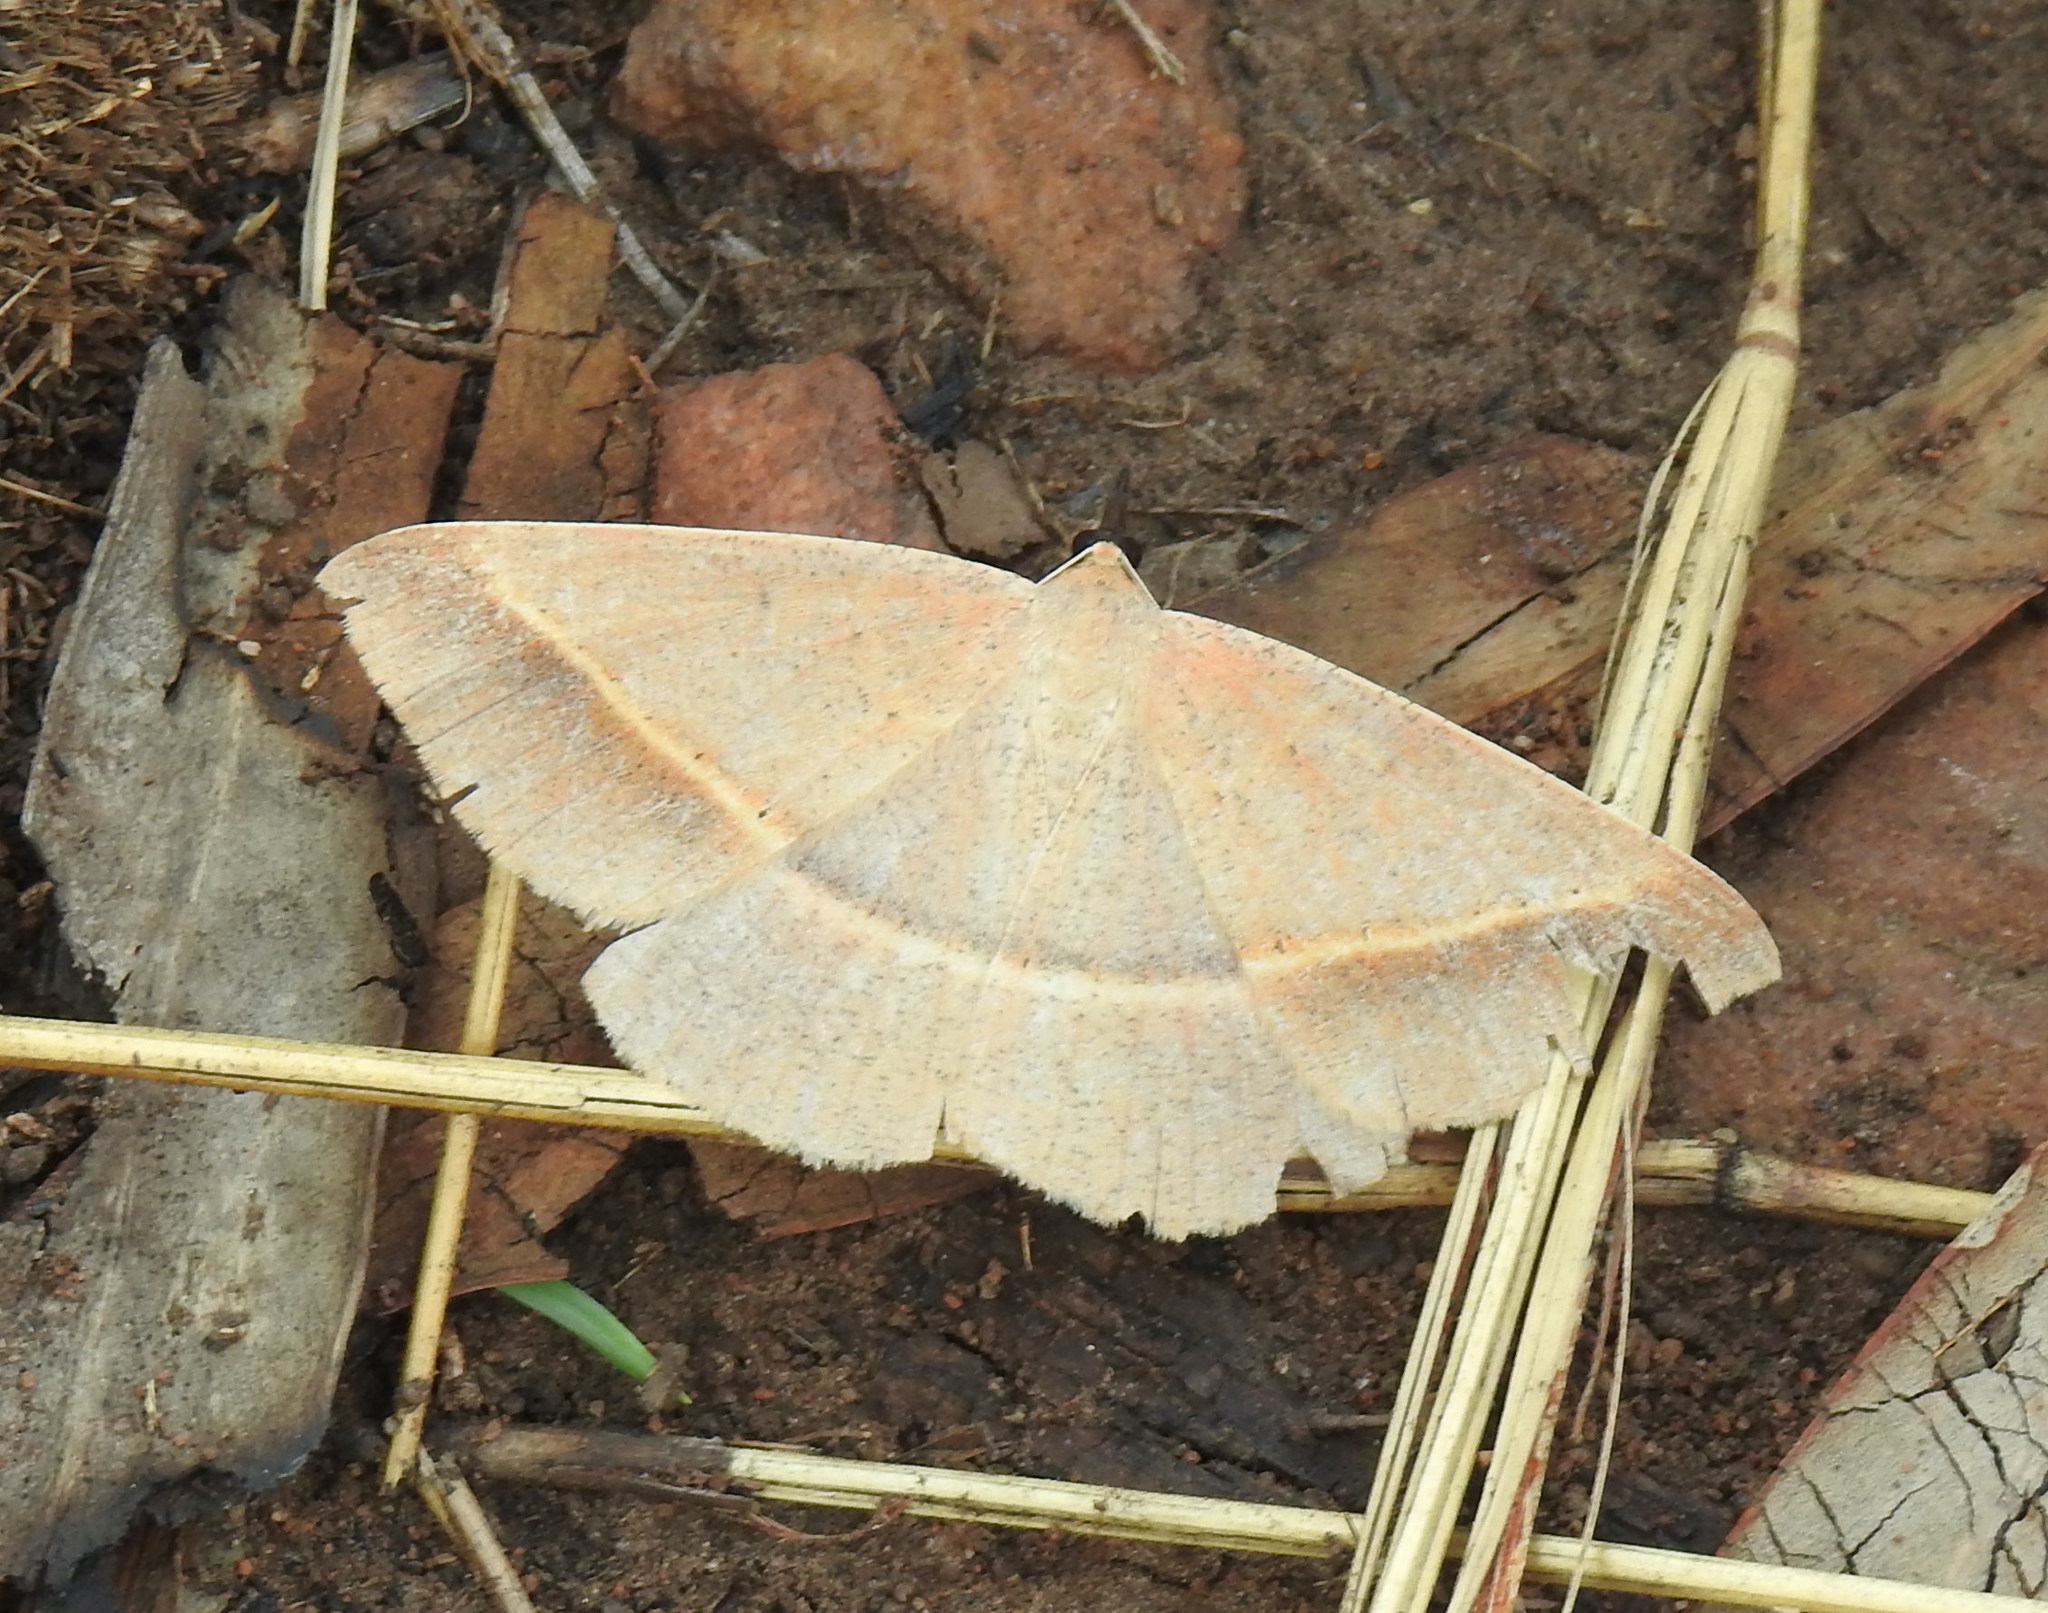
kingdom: Animalia
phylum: Arthropoda
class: Insecta
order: Lepidoptera
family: Geometridae
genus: Conolophia
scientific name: Conolophia conscitaria
